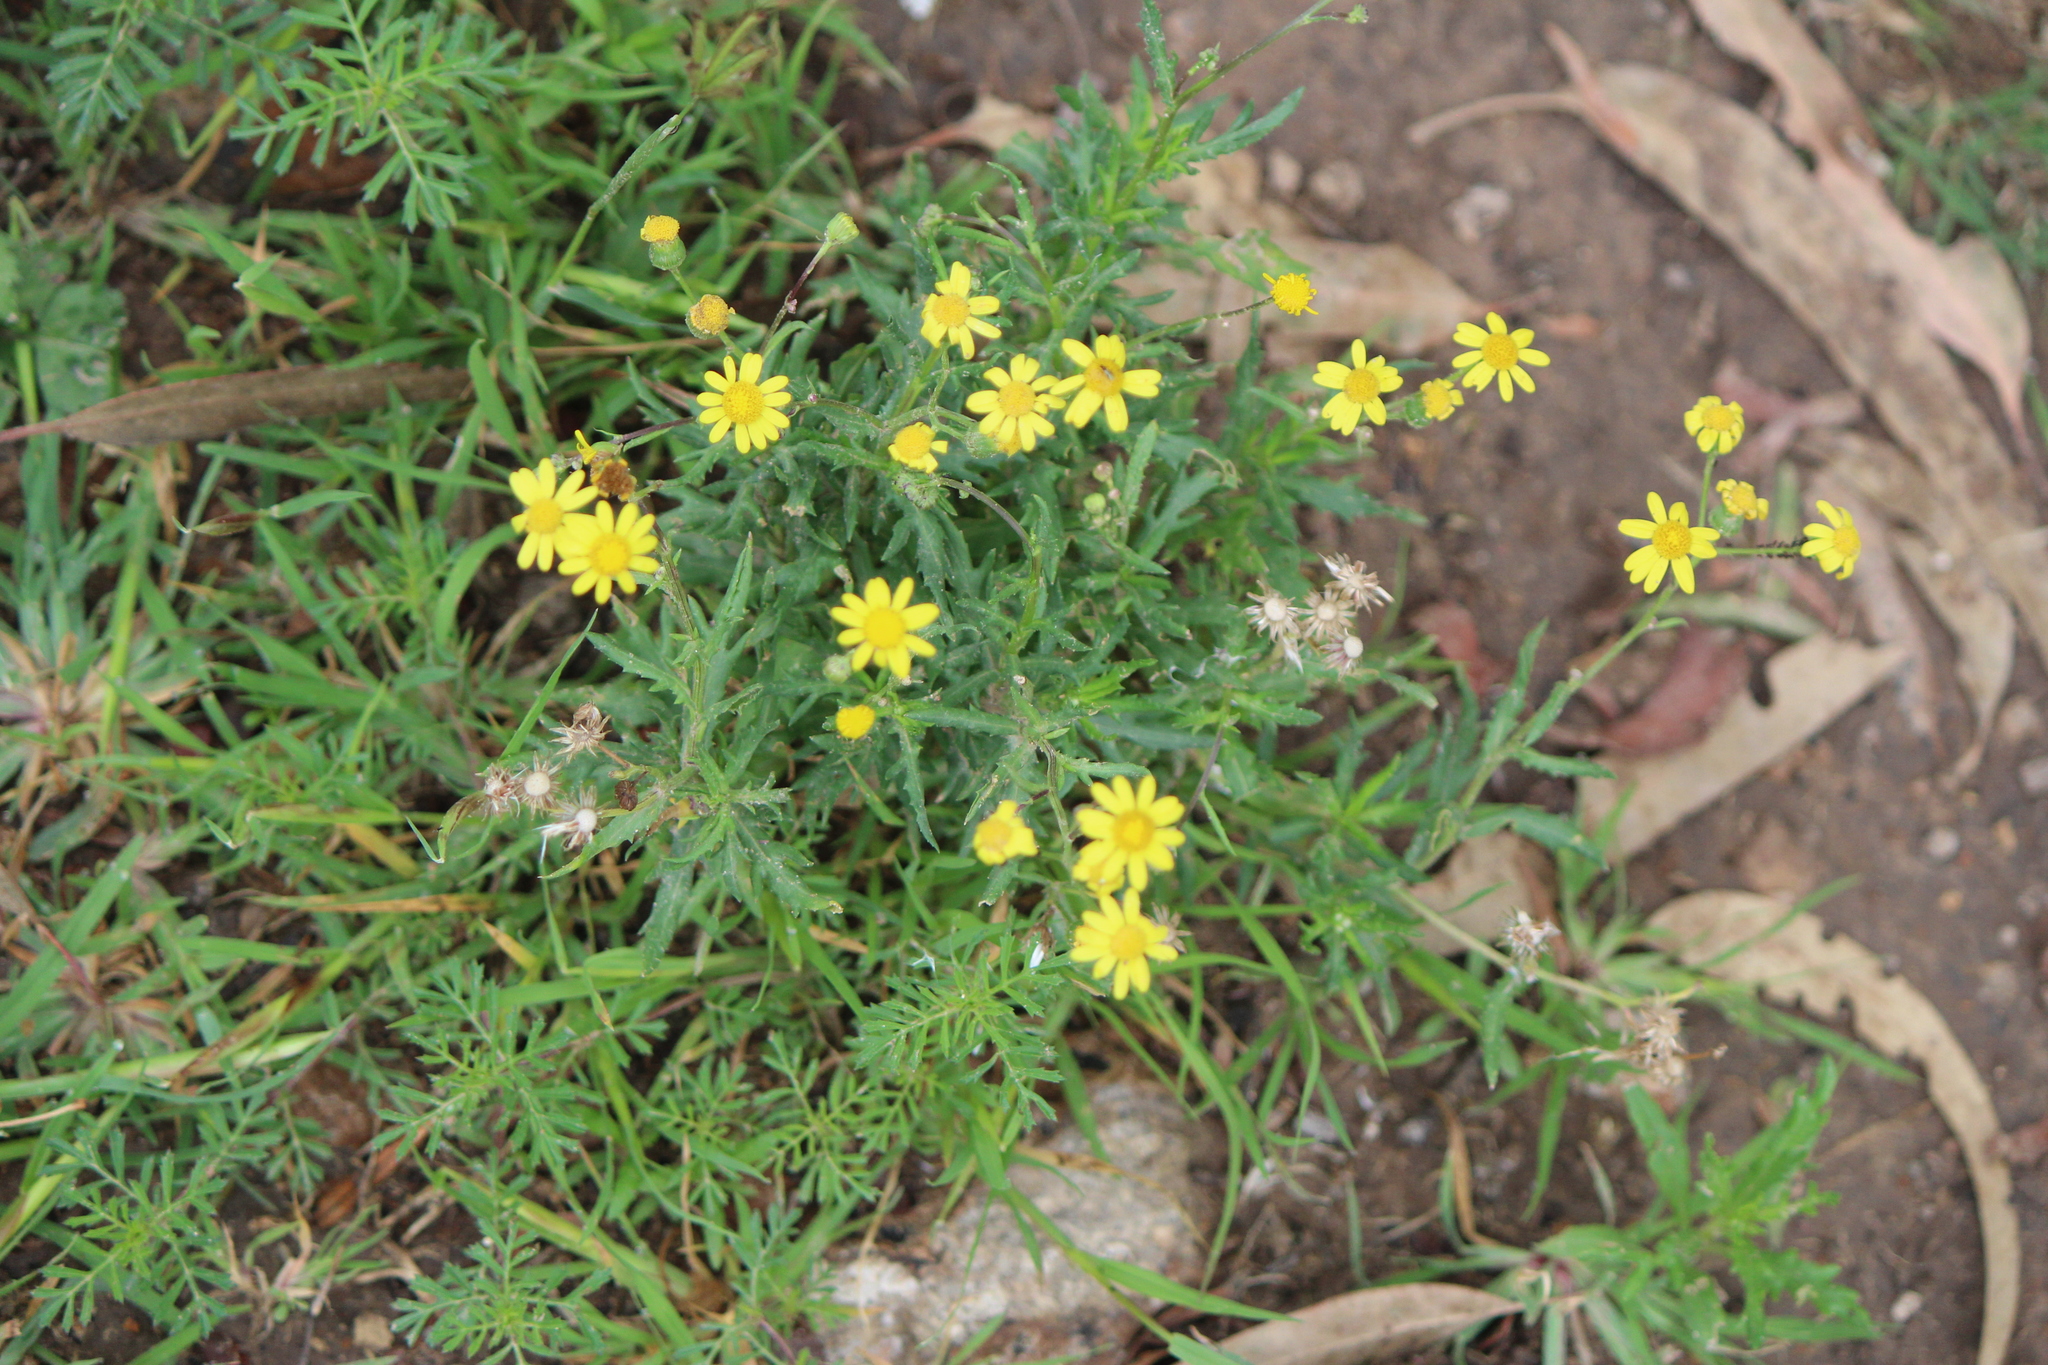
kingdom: Plantae
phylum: Tracheophyta
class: Magnoliopsida
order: Asterales
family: Asteraceae
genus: Senecio
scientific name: Senecio inaequidens
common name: Narrow-leaved ragwort
